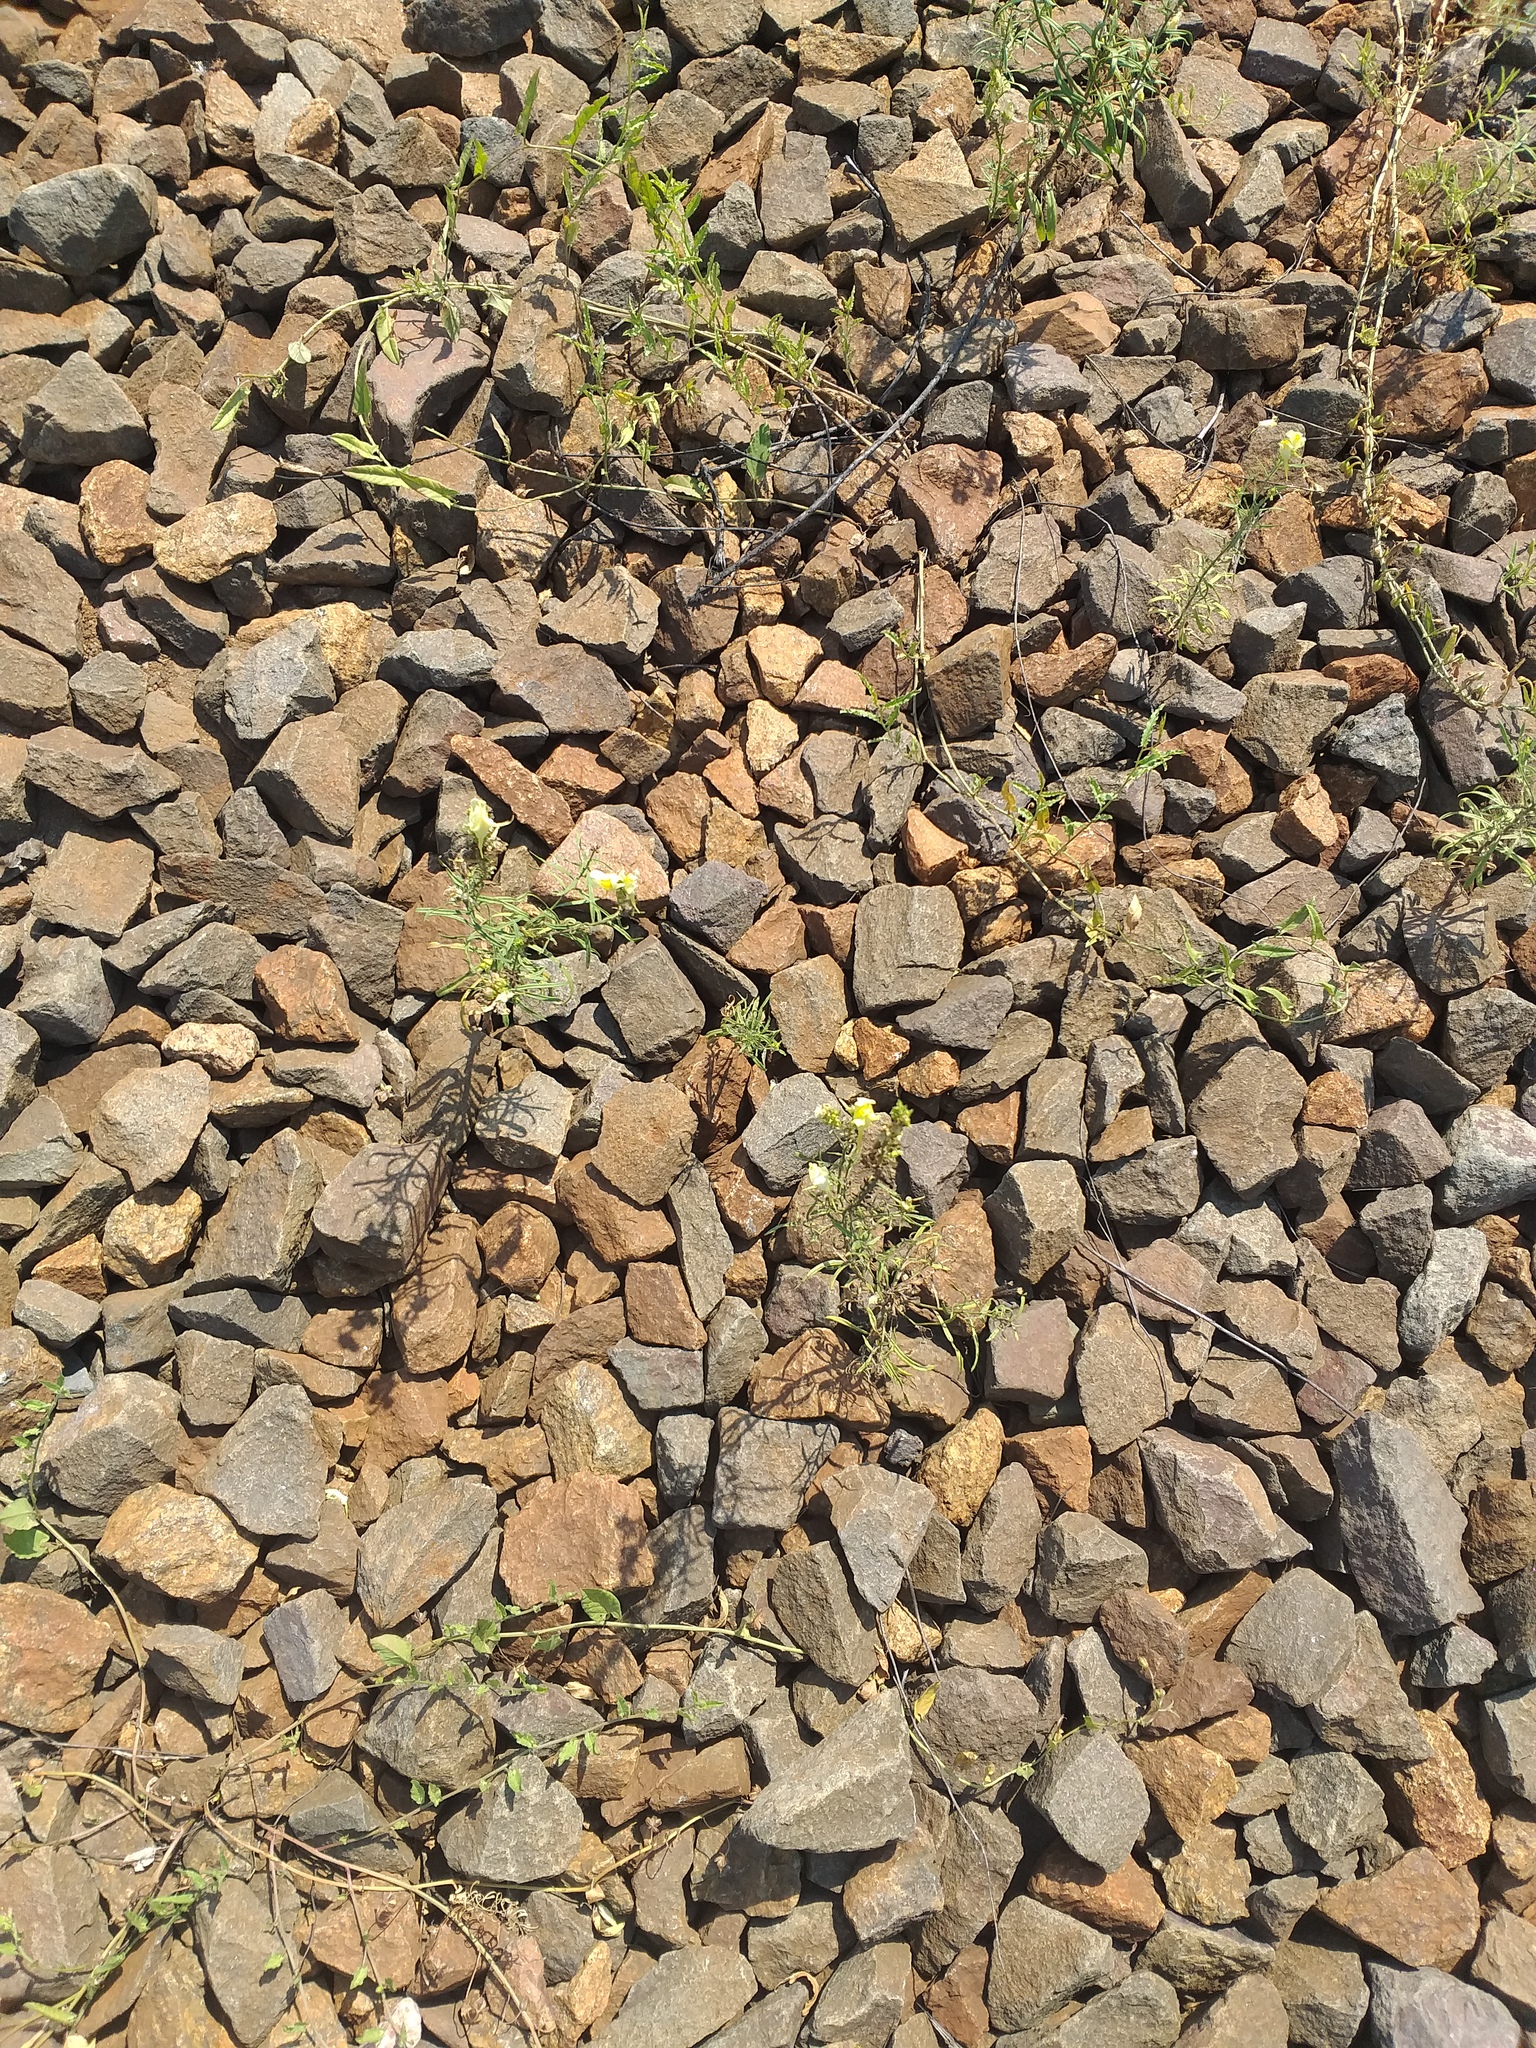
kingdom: Plantae
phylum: Tracheophyta
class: Magnoliopsida
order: Lamiales
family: Plantaginaceae
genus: Linaria
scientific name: Linaria vulgaris
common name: Butter and eggs
